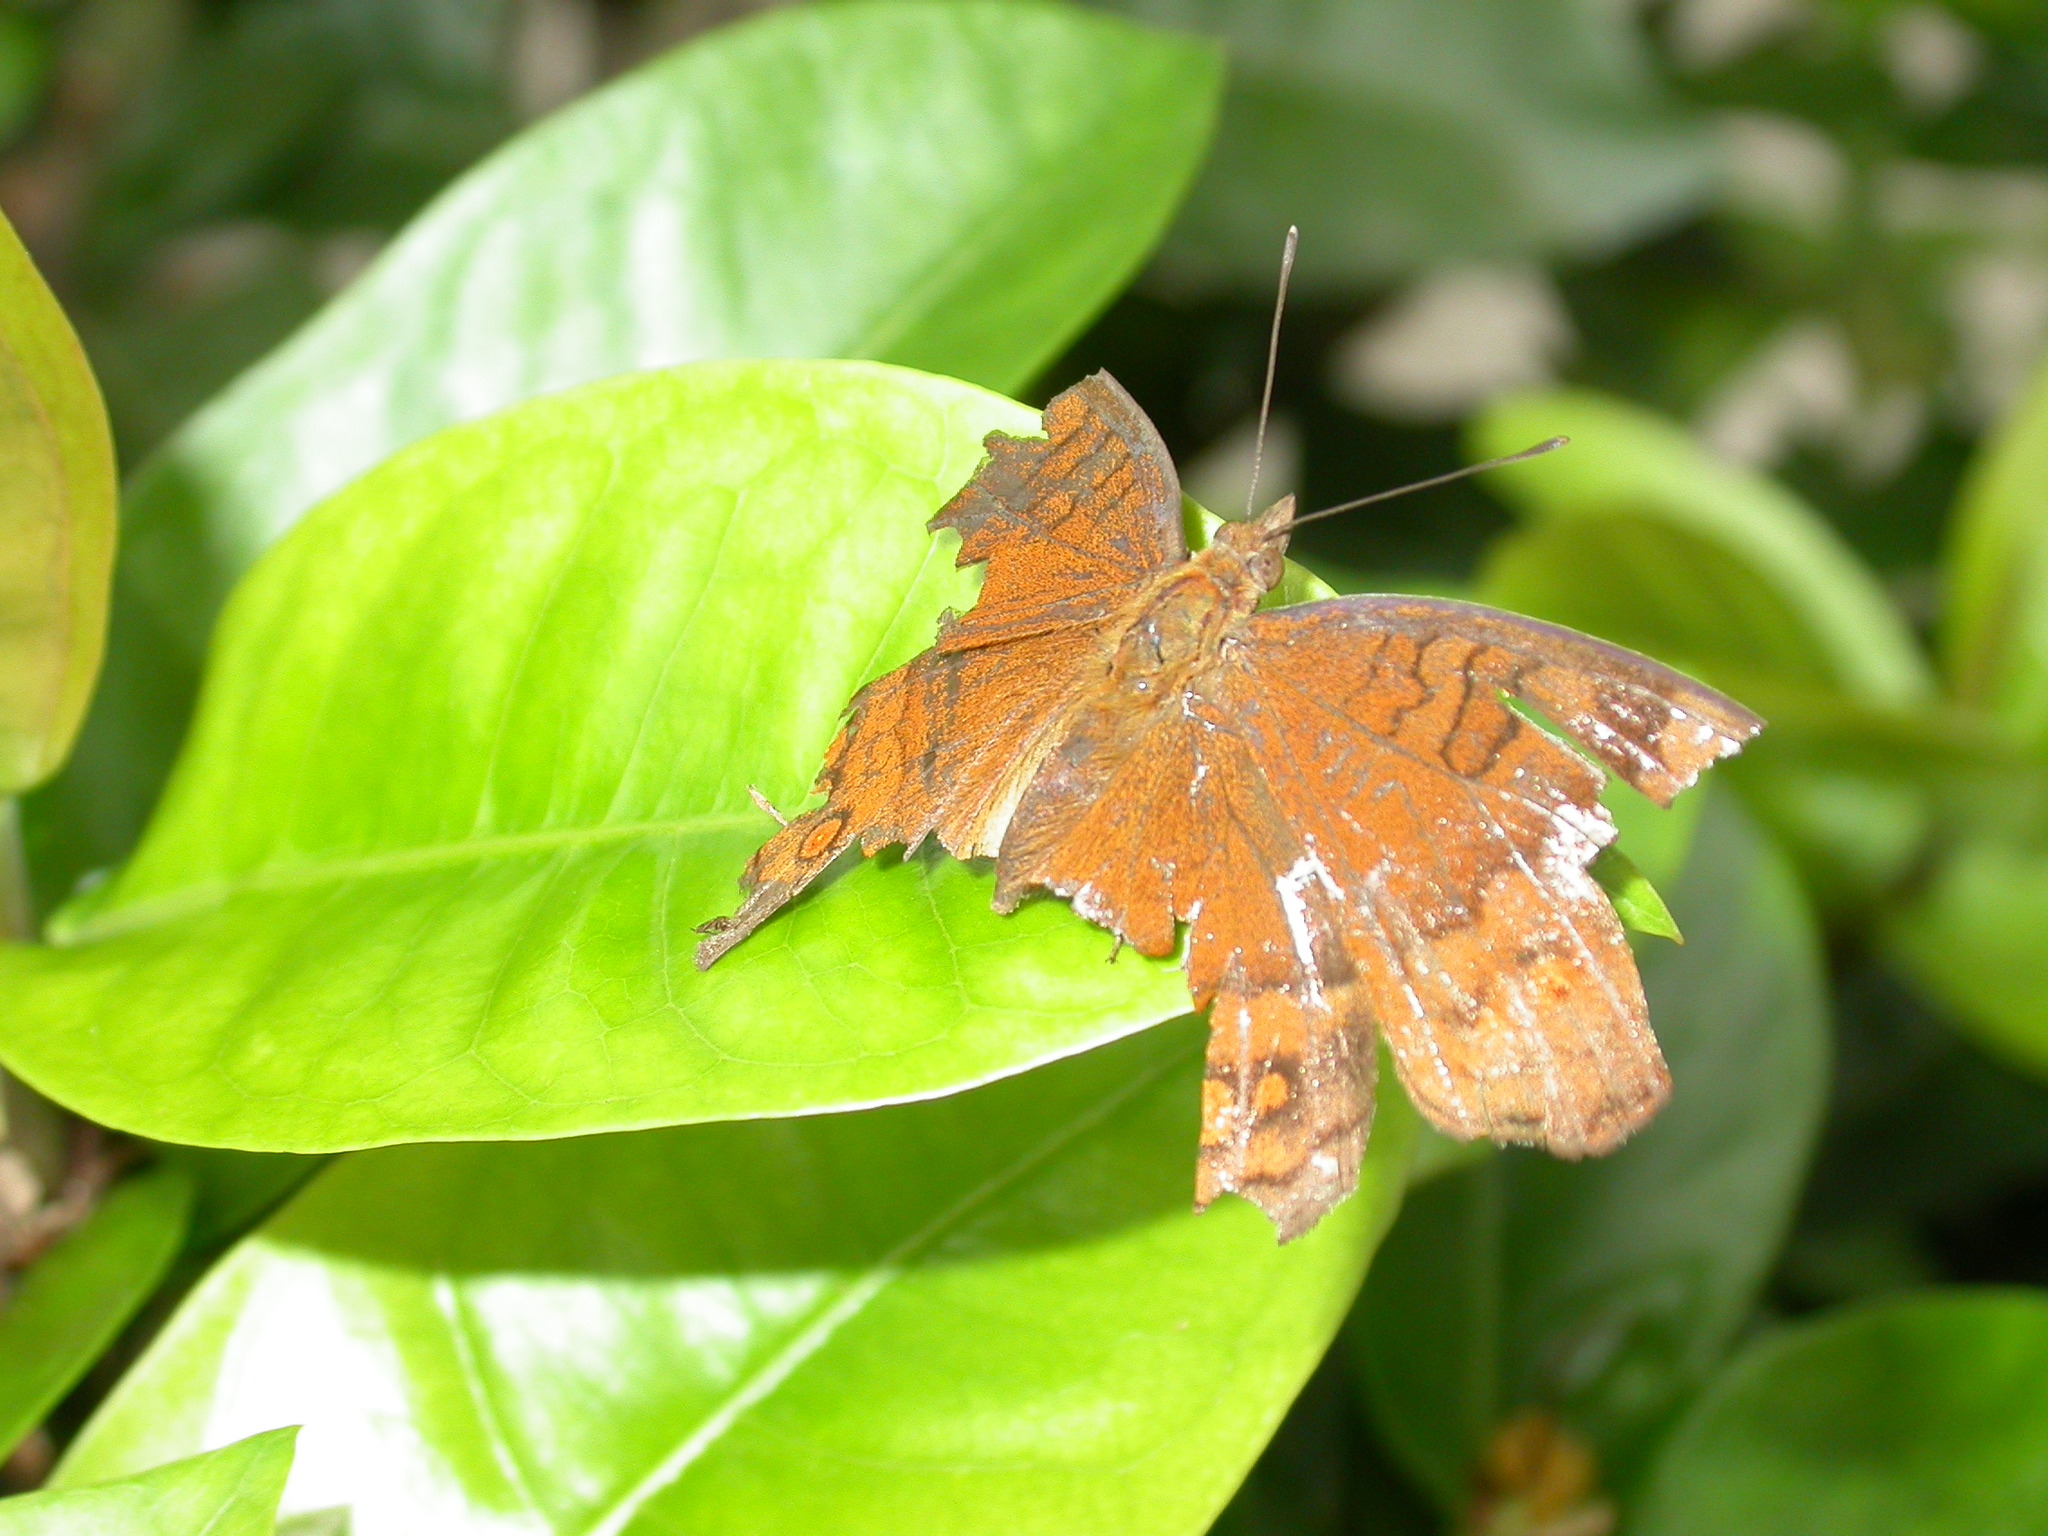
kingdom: Animalia
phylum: Arthropoda
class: Insecta
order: Lepidoptera
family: Nymphalidae
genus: Junonia
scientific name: Junonia hedonia
